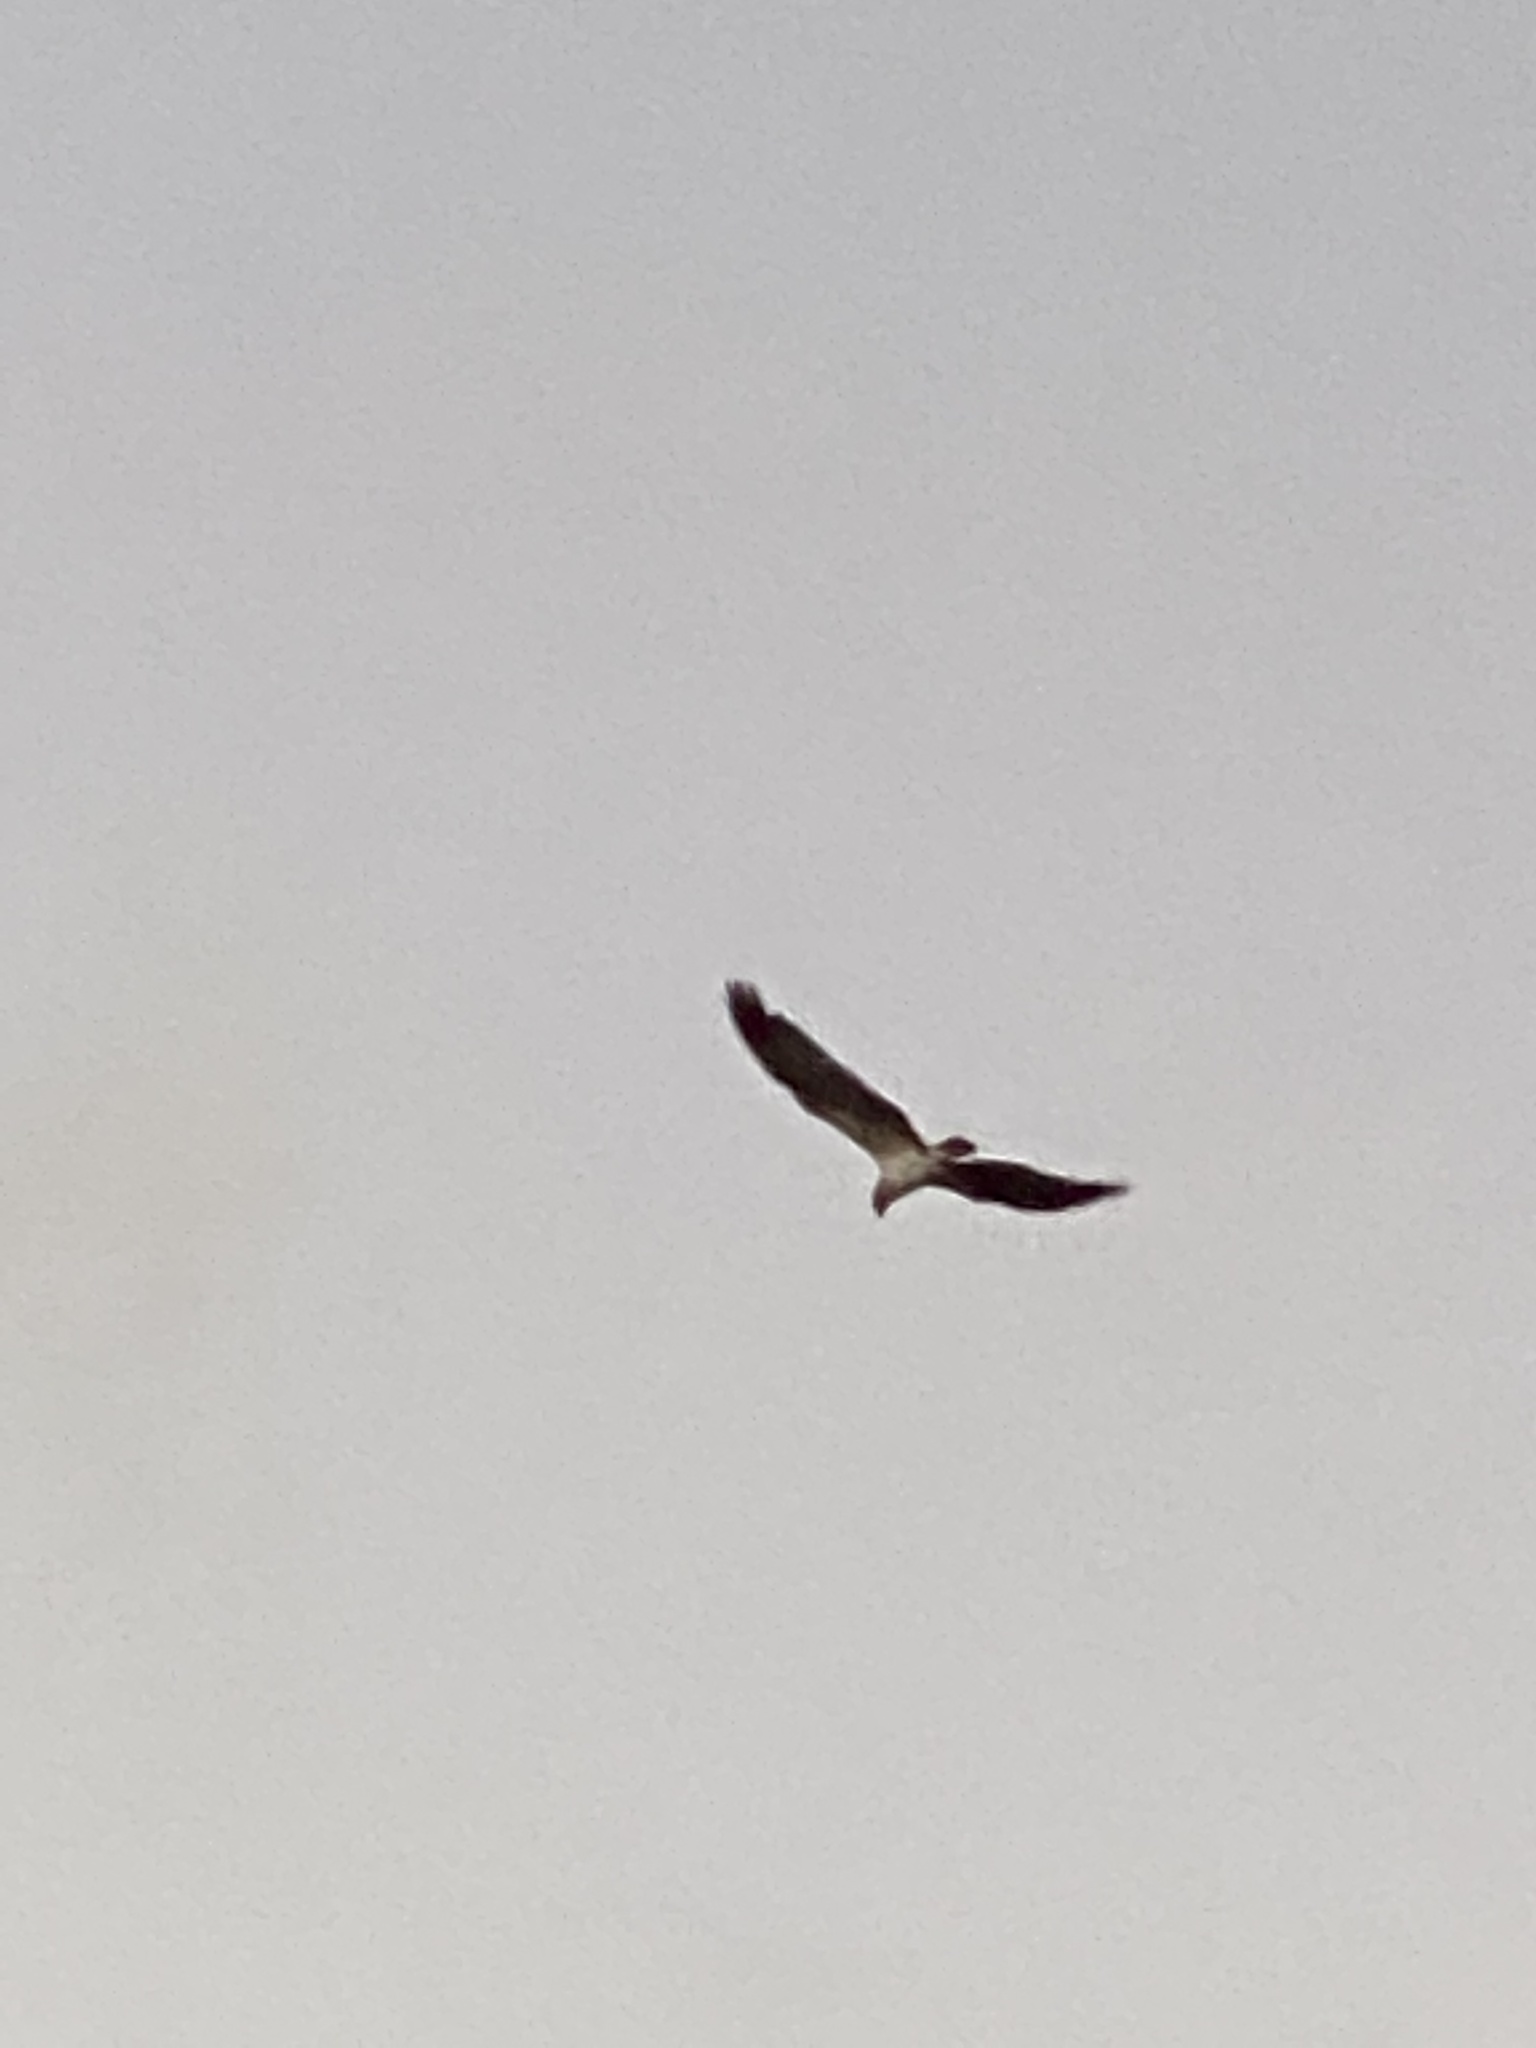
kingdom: Animalia
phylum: Chordata
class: Aves
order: Accipitriformes
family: Pandionidae
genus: Pandion
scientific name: Pandion haliaetus
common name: Osprey
